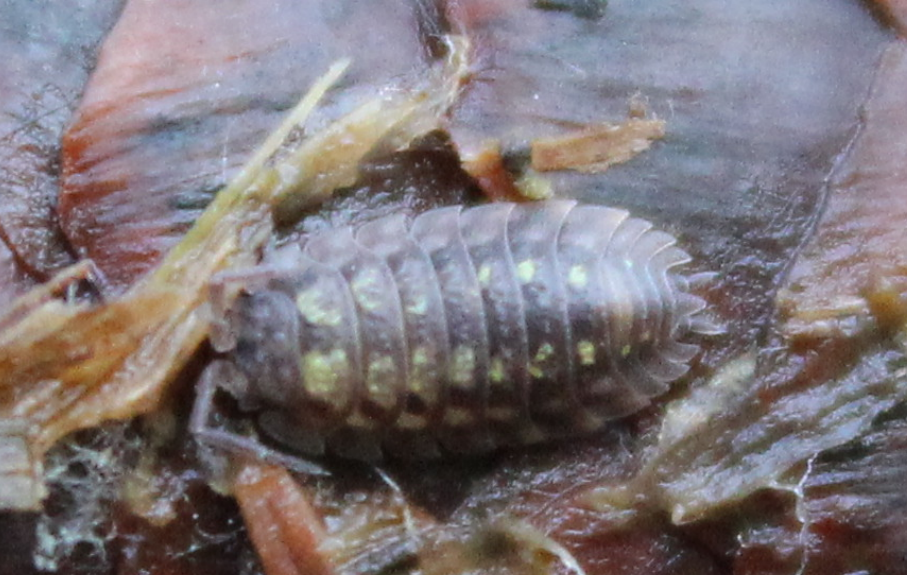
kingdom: Animalia
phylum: Arthropoda
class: Malacostraca
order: Isopoda
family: Oniscidae
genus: Oniscus
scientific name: Oniscus asellus
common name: Common shiny woodlouse
